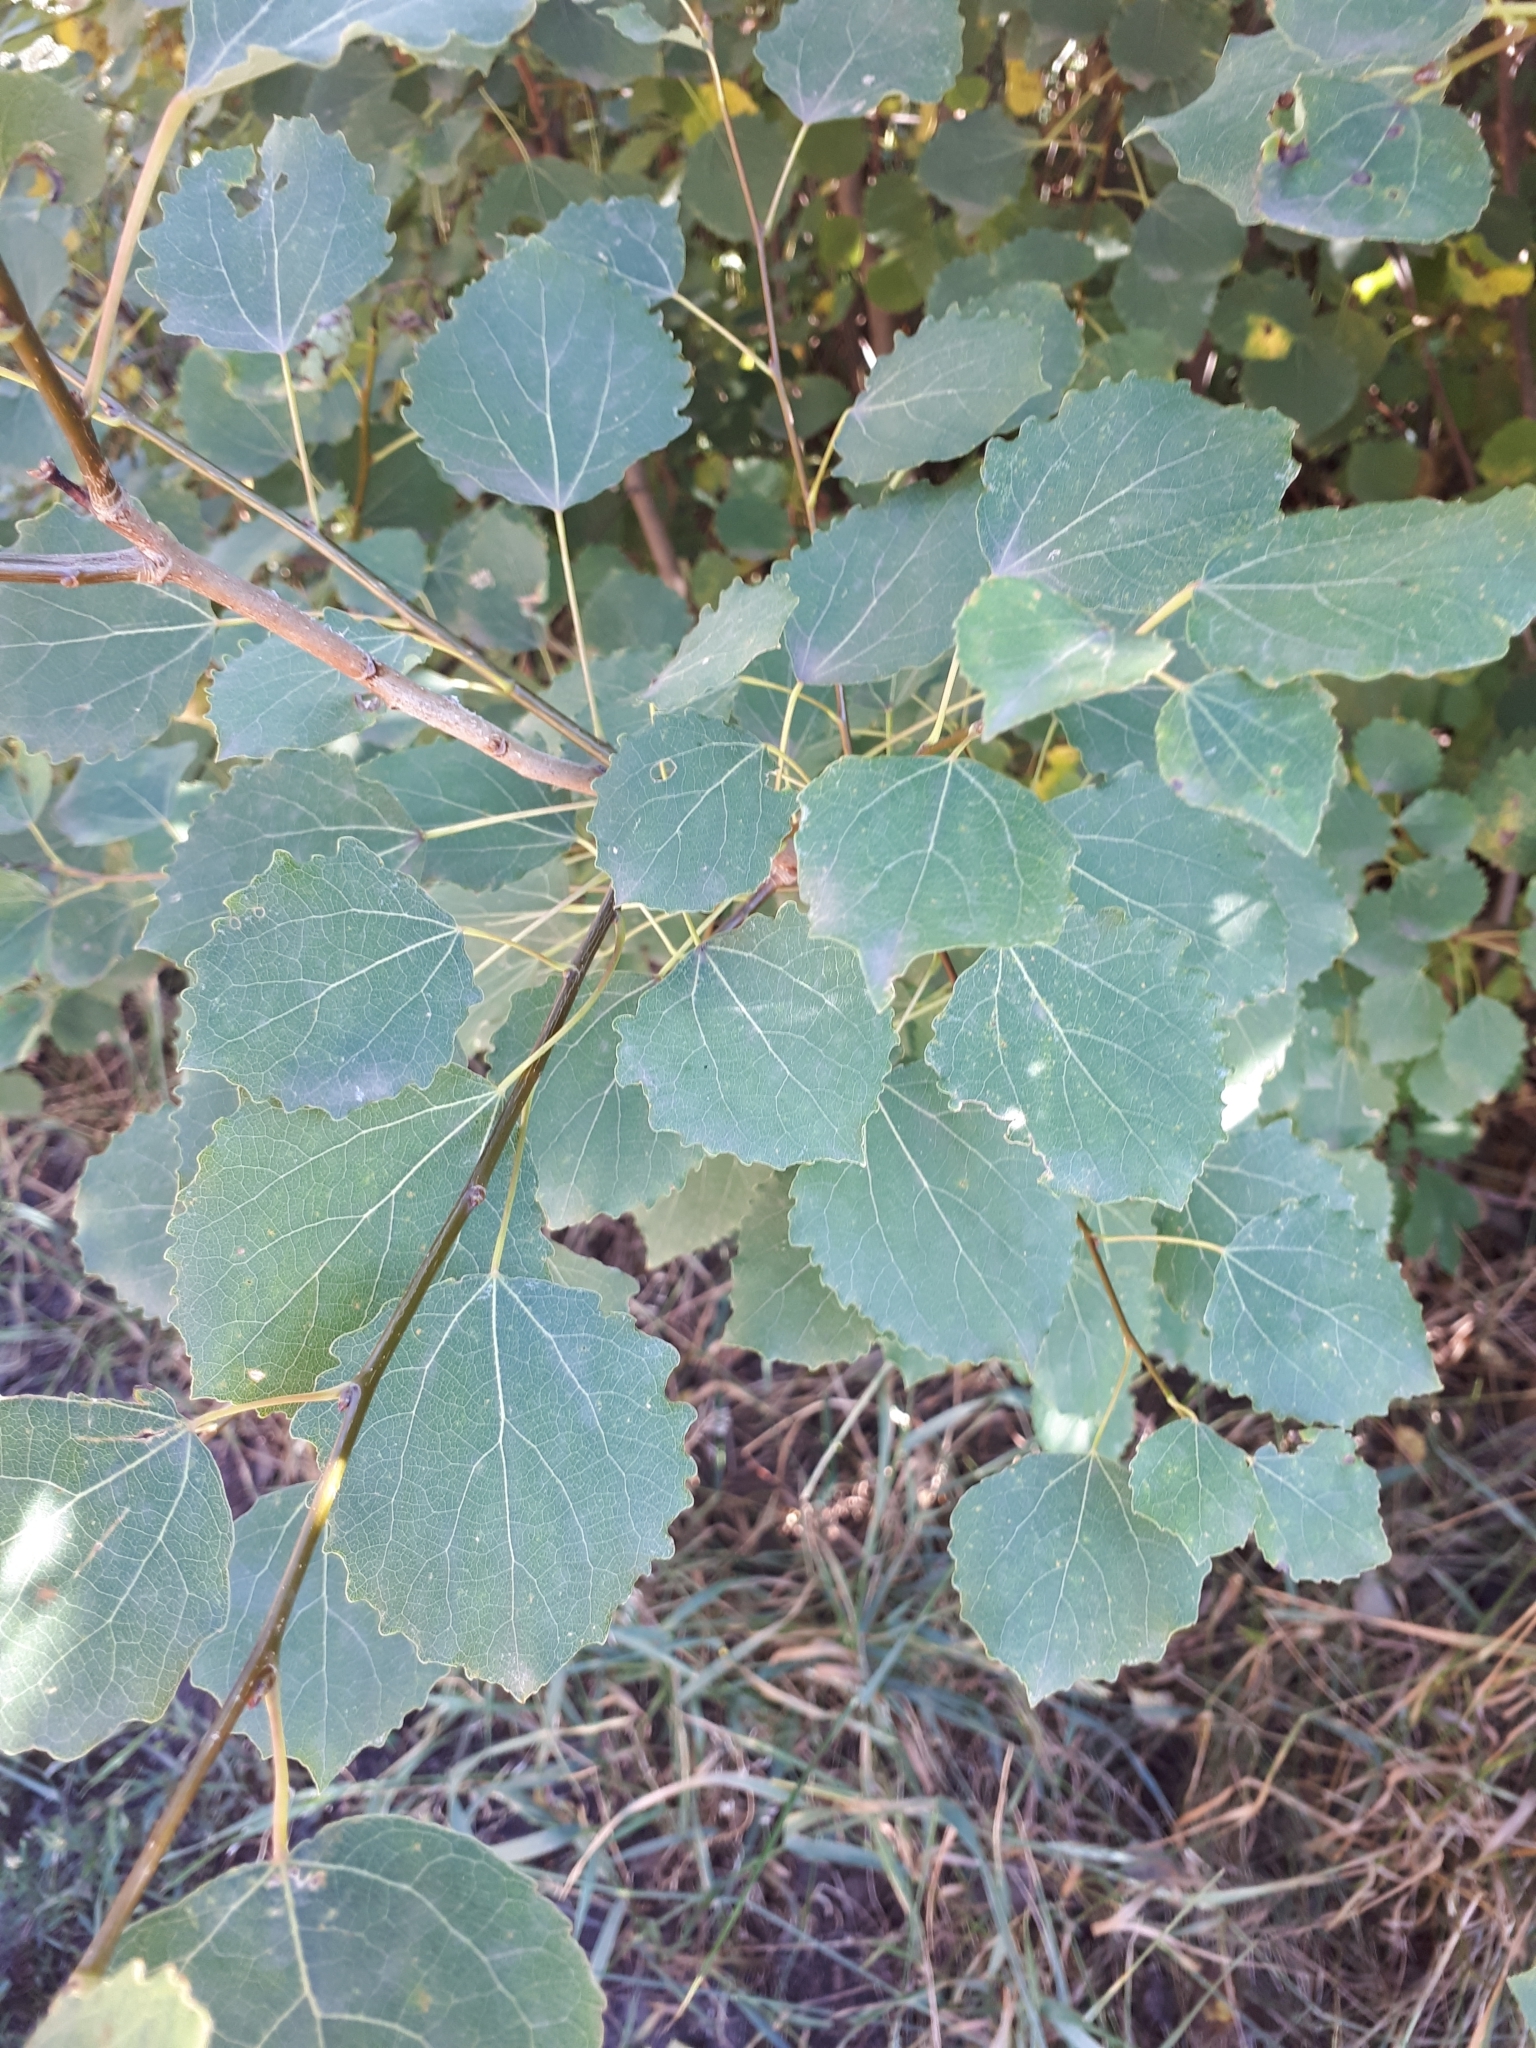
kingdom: Plantae
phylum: Tracheophyta
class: Magnoliopsida
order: Malpighiales
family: Salicaceae
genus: Populus
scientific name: Populus tremula
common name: European aspen
